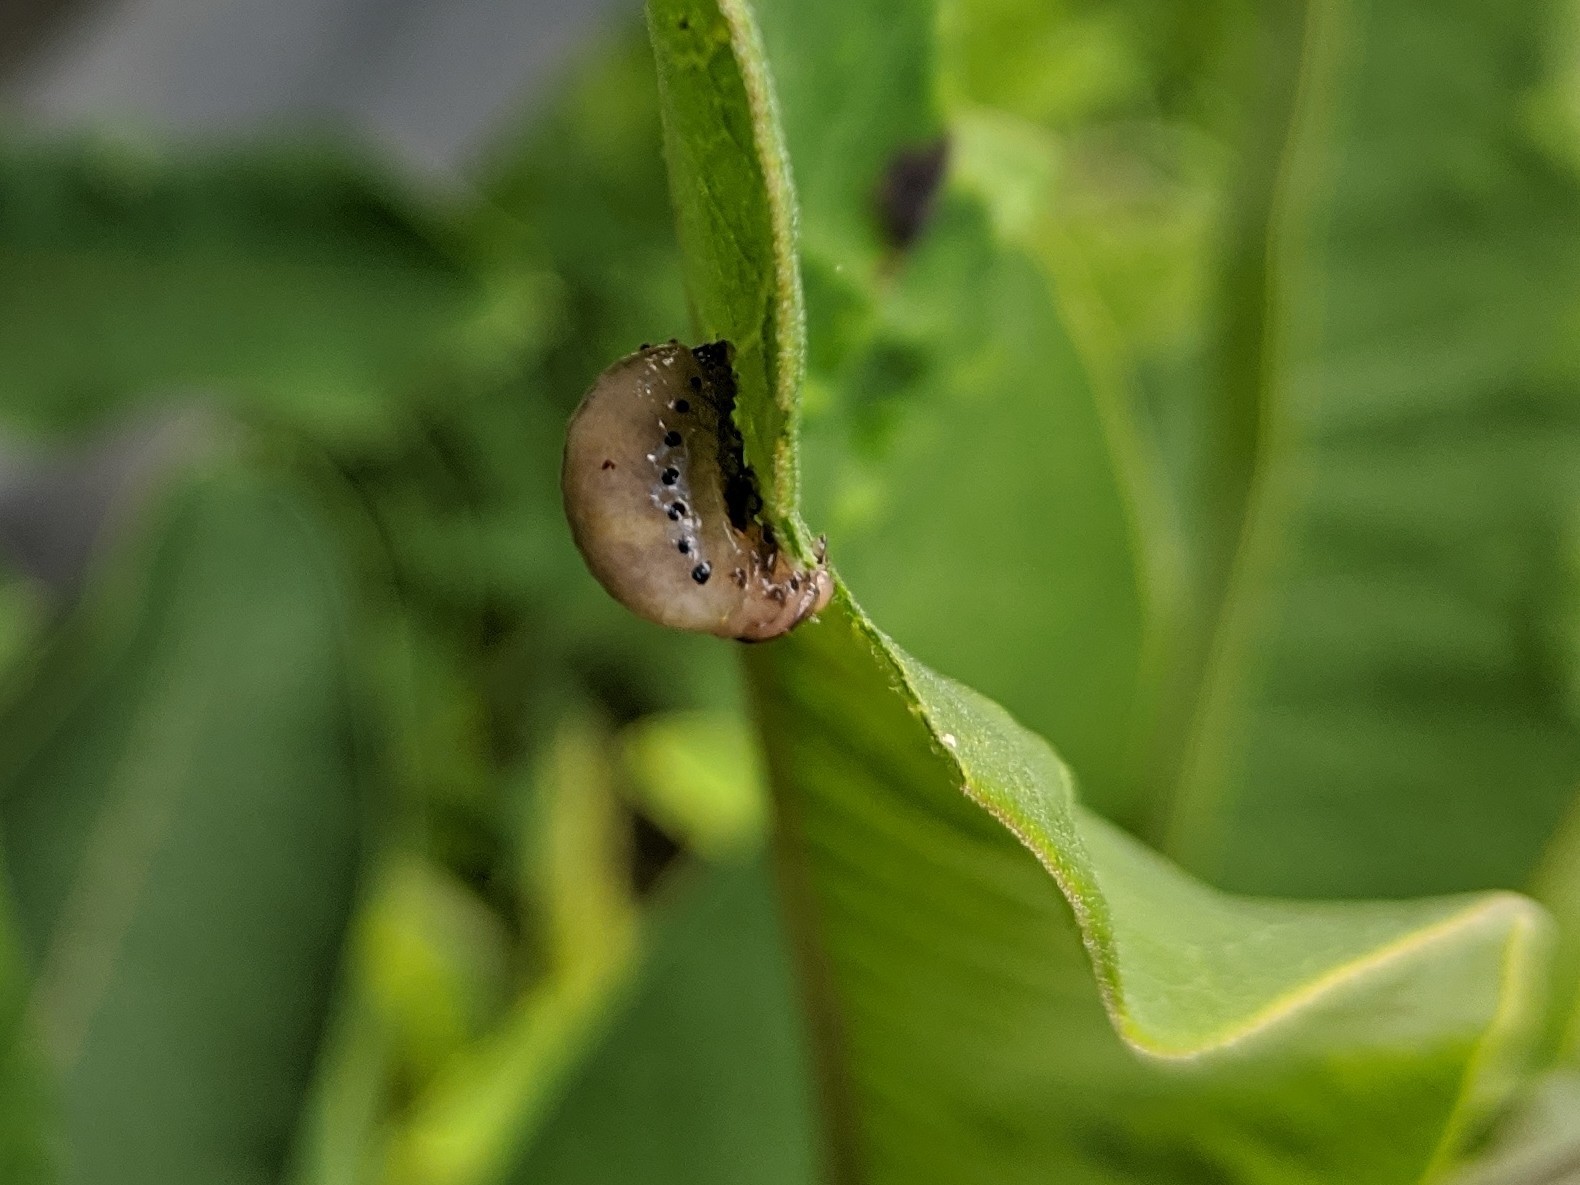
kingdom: Animalia
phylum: Arthropoda
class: Insecta
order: Coleoptera
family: Chrysomelidae
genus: Labidomera
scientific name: Labidomera clivicollis
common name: Swamp milkweed leaf beetle
